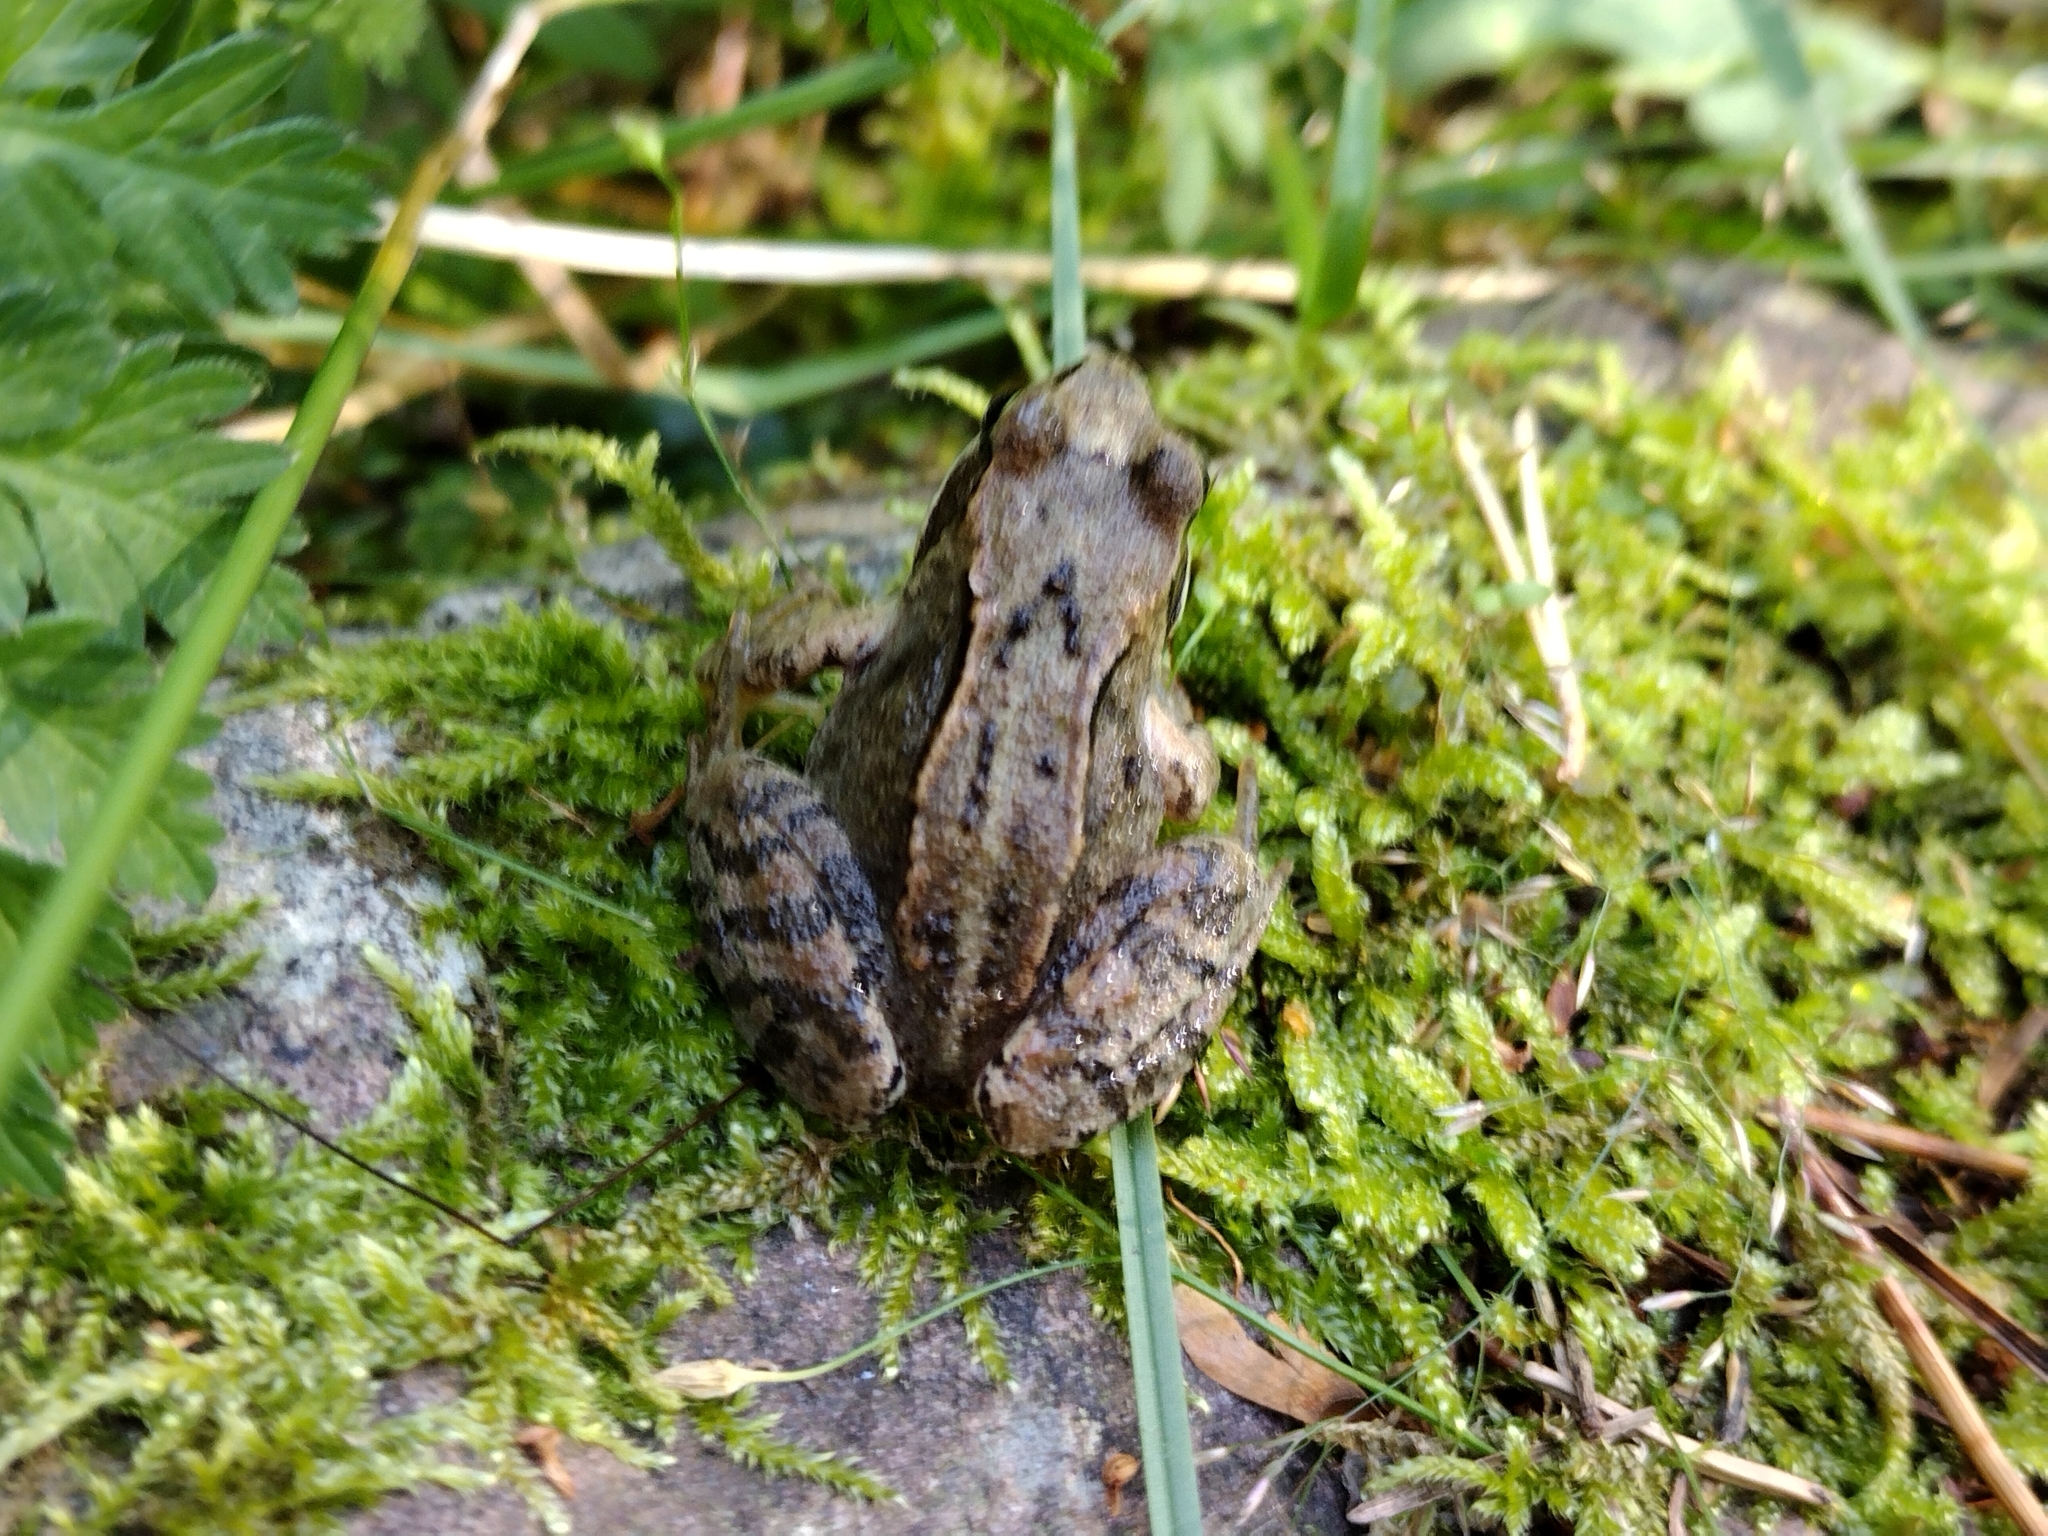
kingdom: Animalia
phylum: Chordata
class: Amphibia
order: Anura
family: Ranidae
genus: Rana
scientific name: Rana temporaria
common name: Common frog
